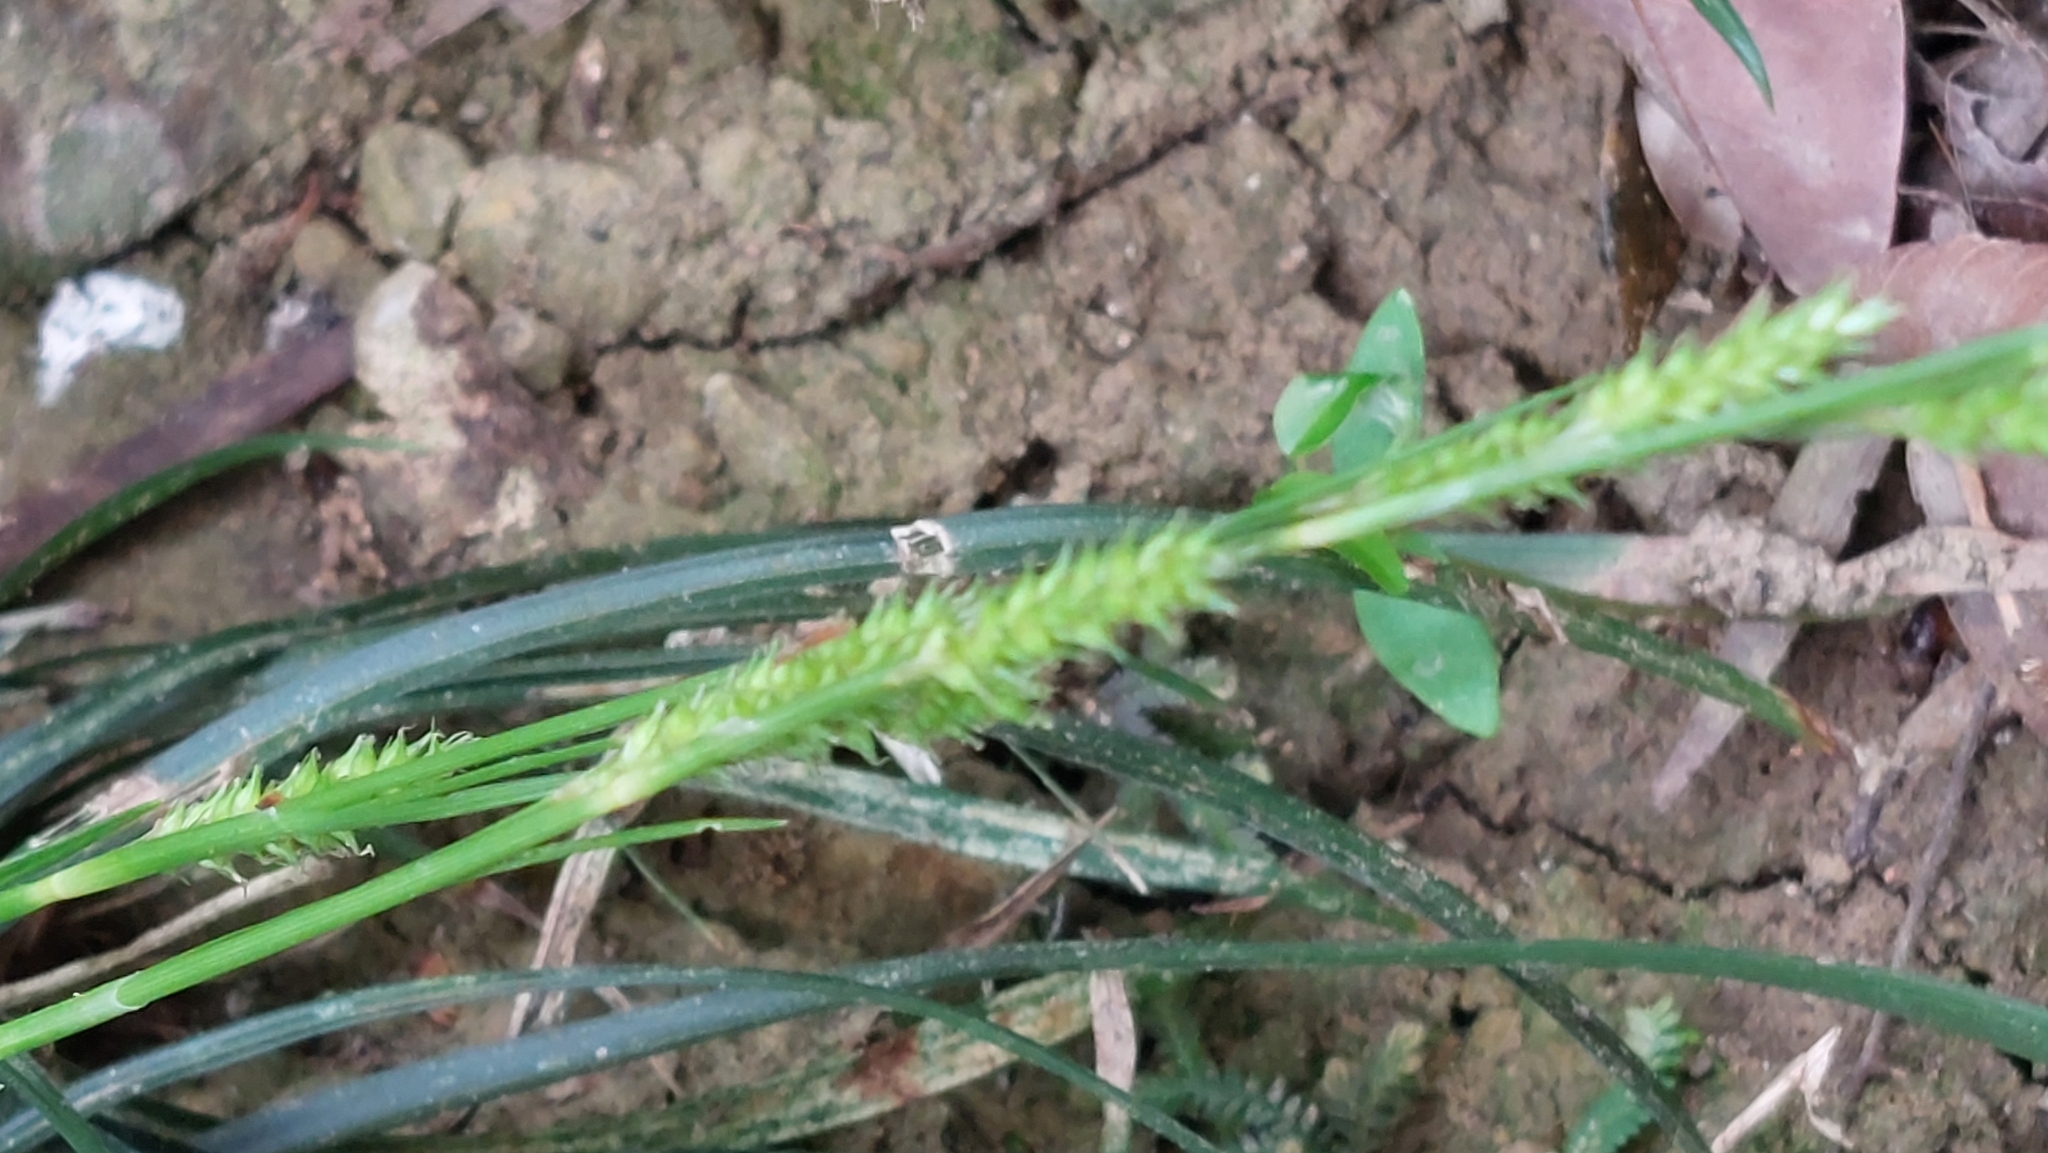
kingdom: Plantae
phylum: Tracheophyta
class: Liliopsida
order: Poales
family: Cyperaceae
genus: Carex
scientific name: Carex sociata
